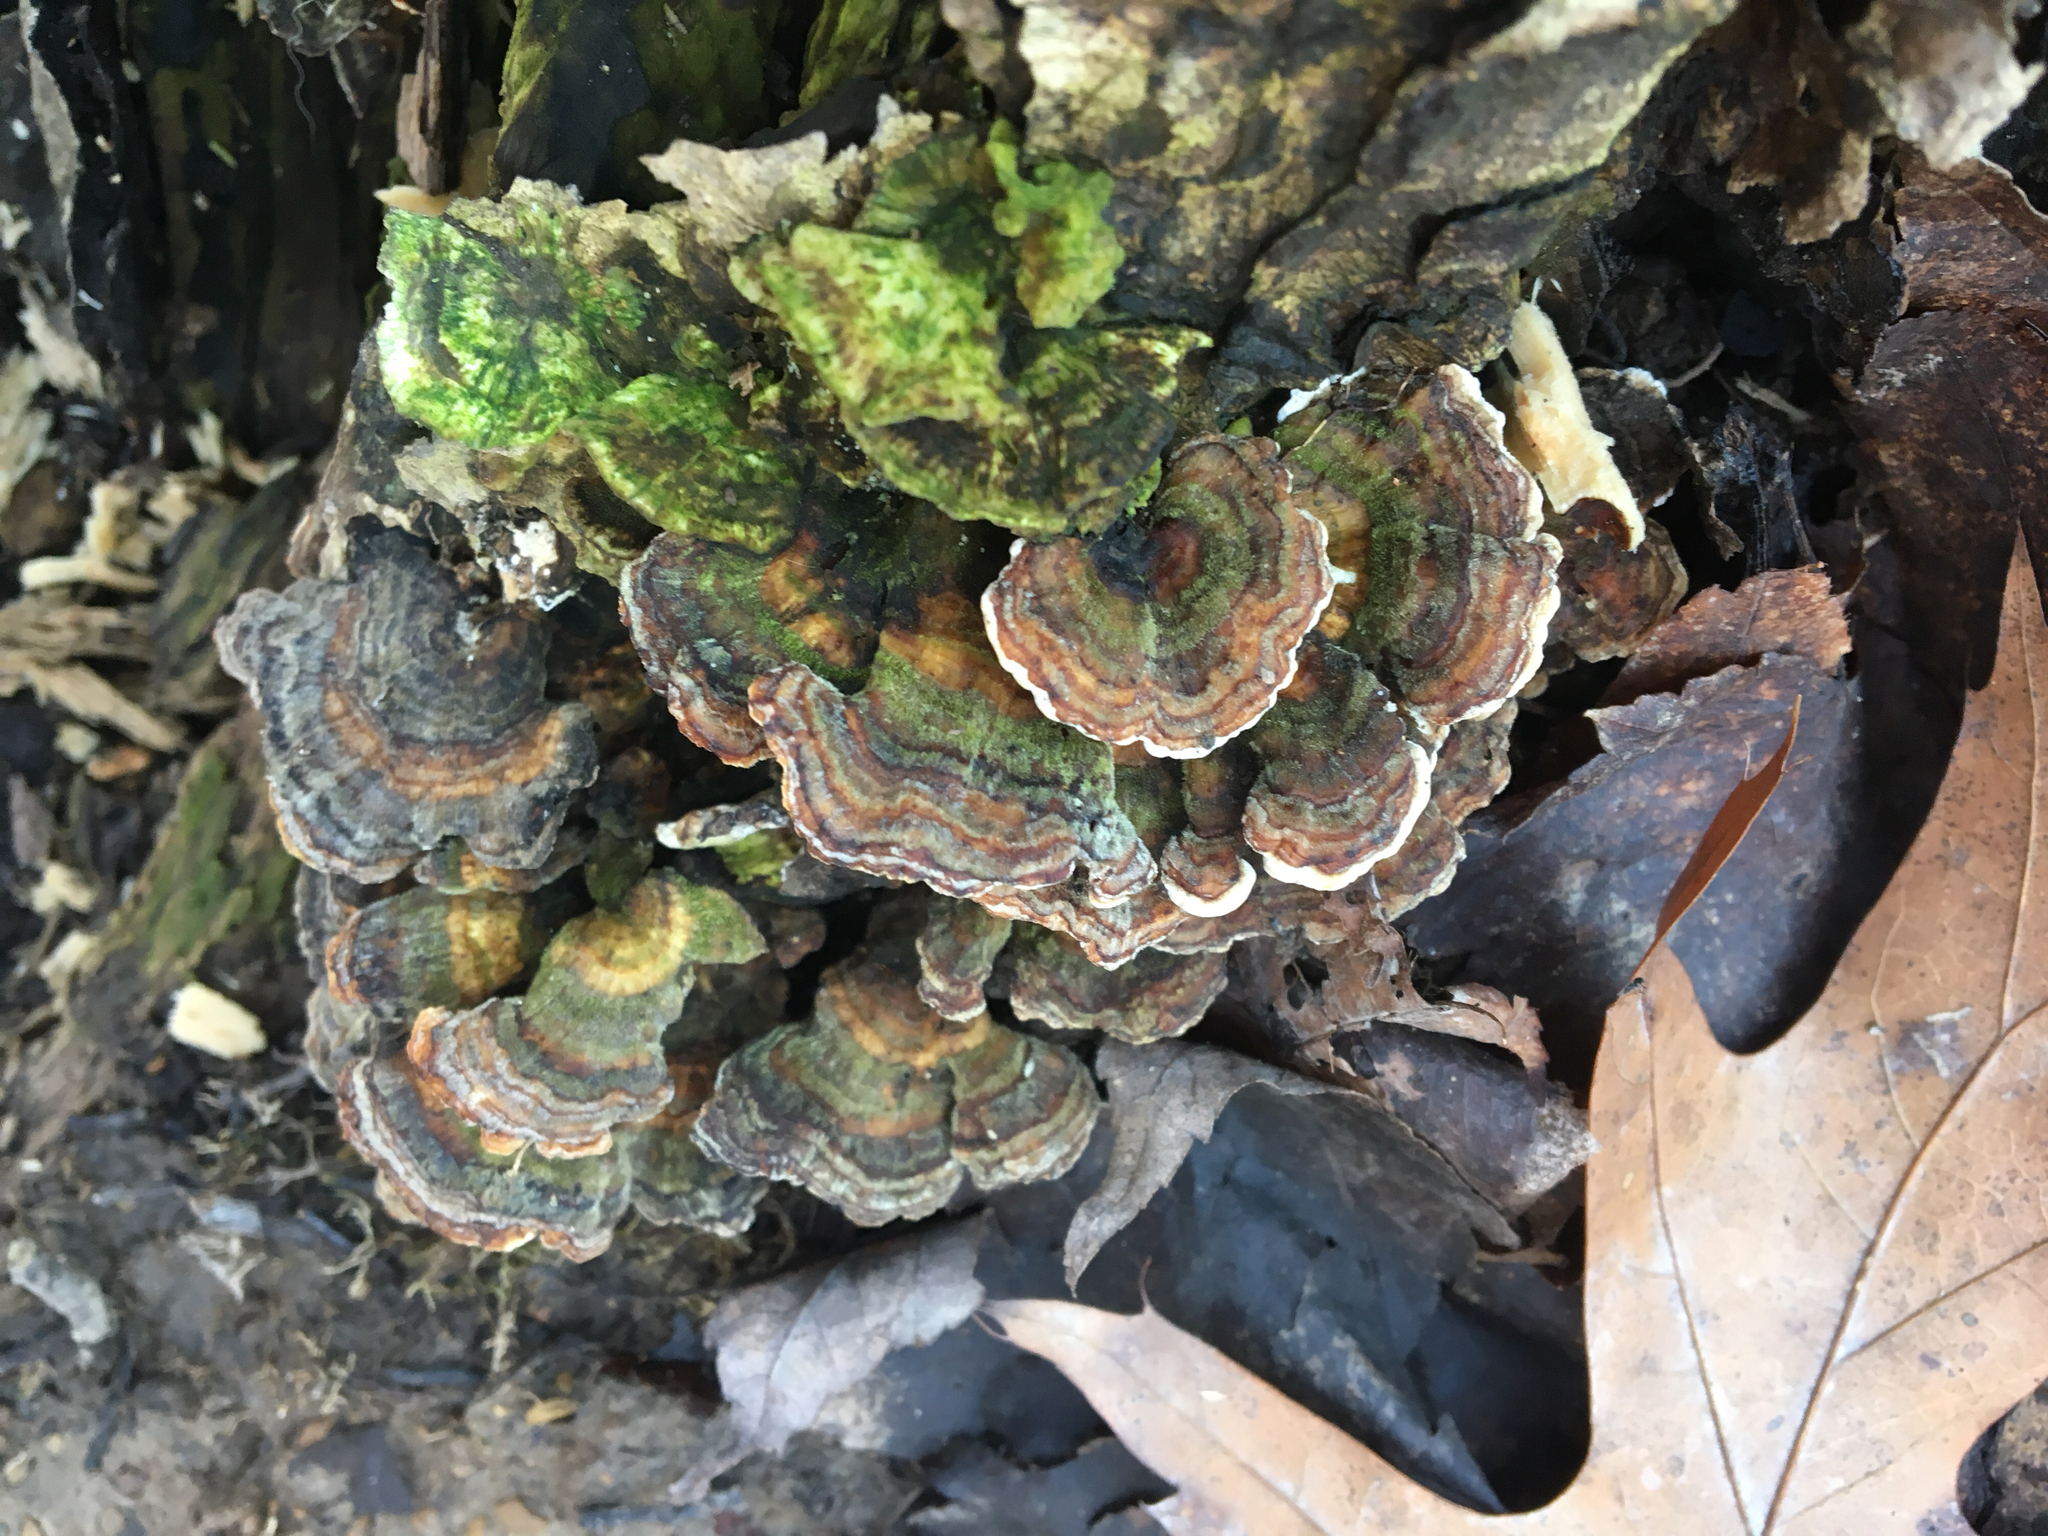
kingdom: Fungi
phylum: Basidiomycota
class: Agaricomycetes
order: Polyporales
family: Polyporaceae
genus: Trametes
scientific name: Trametes versicolor
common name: Turkeytail
